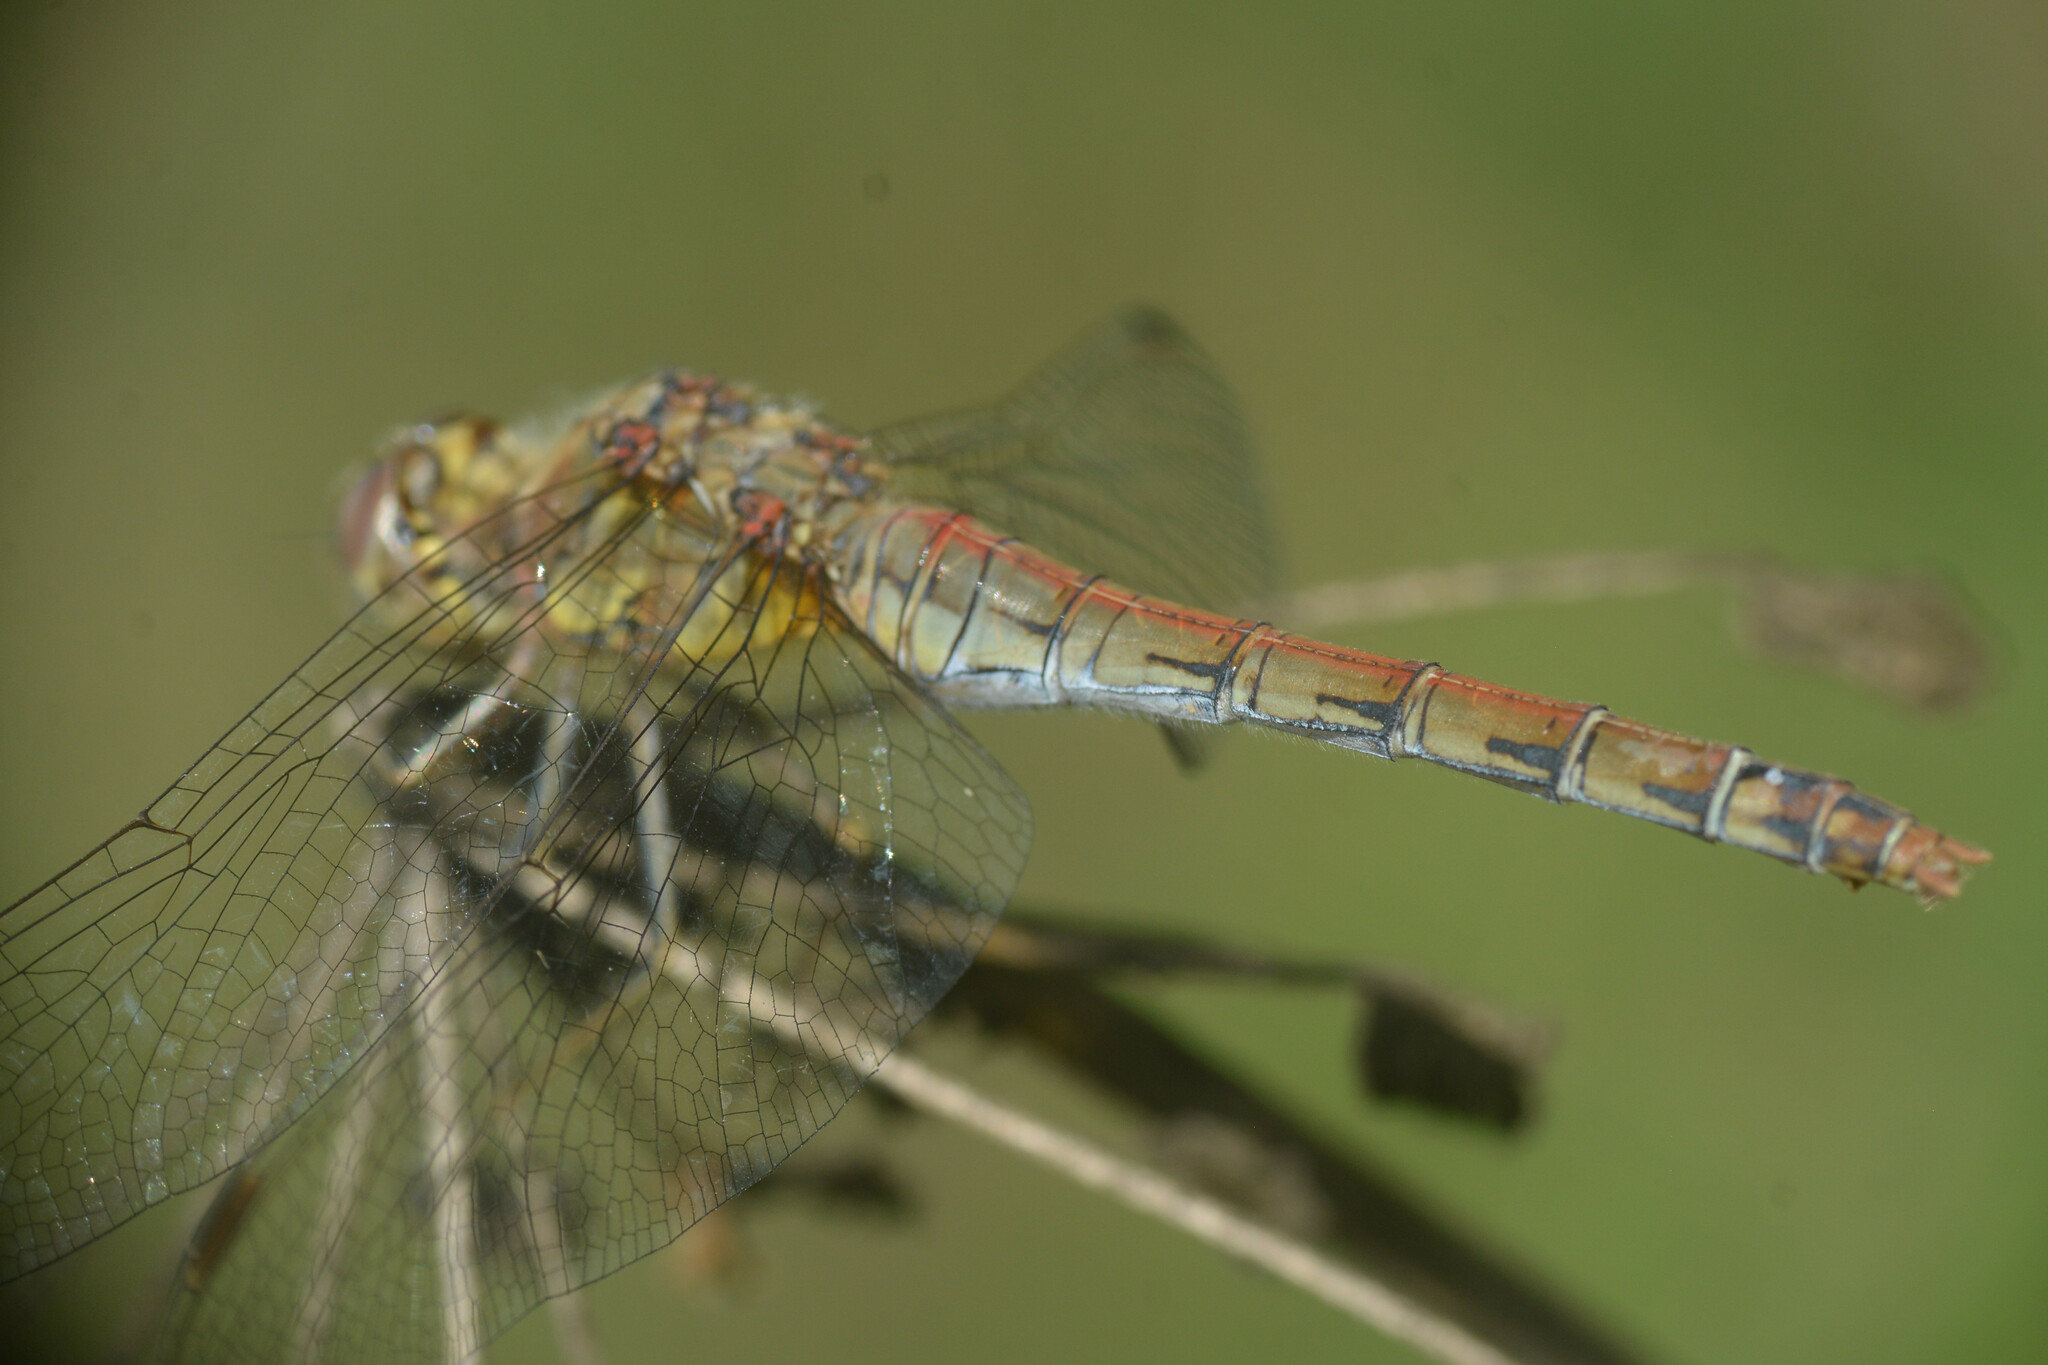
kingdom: Animalia
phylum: Arthropoda
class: Insecta
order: Odonata
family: Libellulidae
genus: Sympetrum
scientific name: Sympetrum striolatum
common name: Common darter
